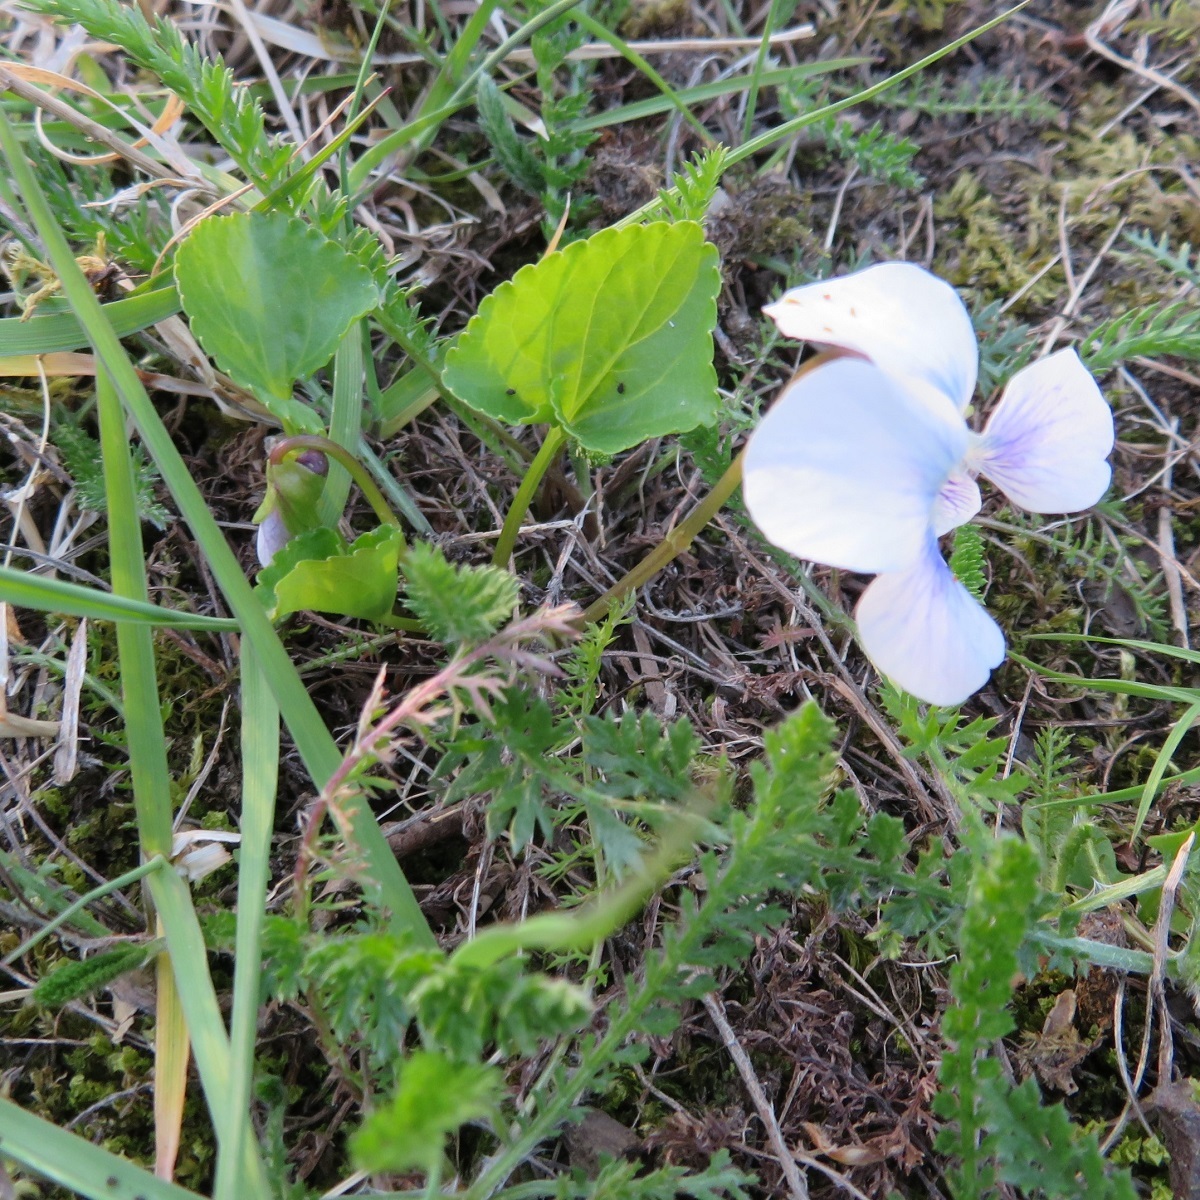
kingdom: Plantae
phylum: Tracheophyta
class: Magnoliopsida
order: Malpighiales
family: Violaceae
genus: Viola
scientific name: Viola sororia
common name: Dooryard violet
